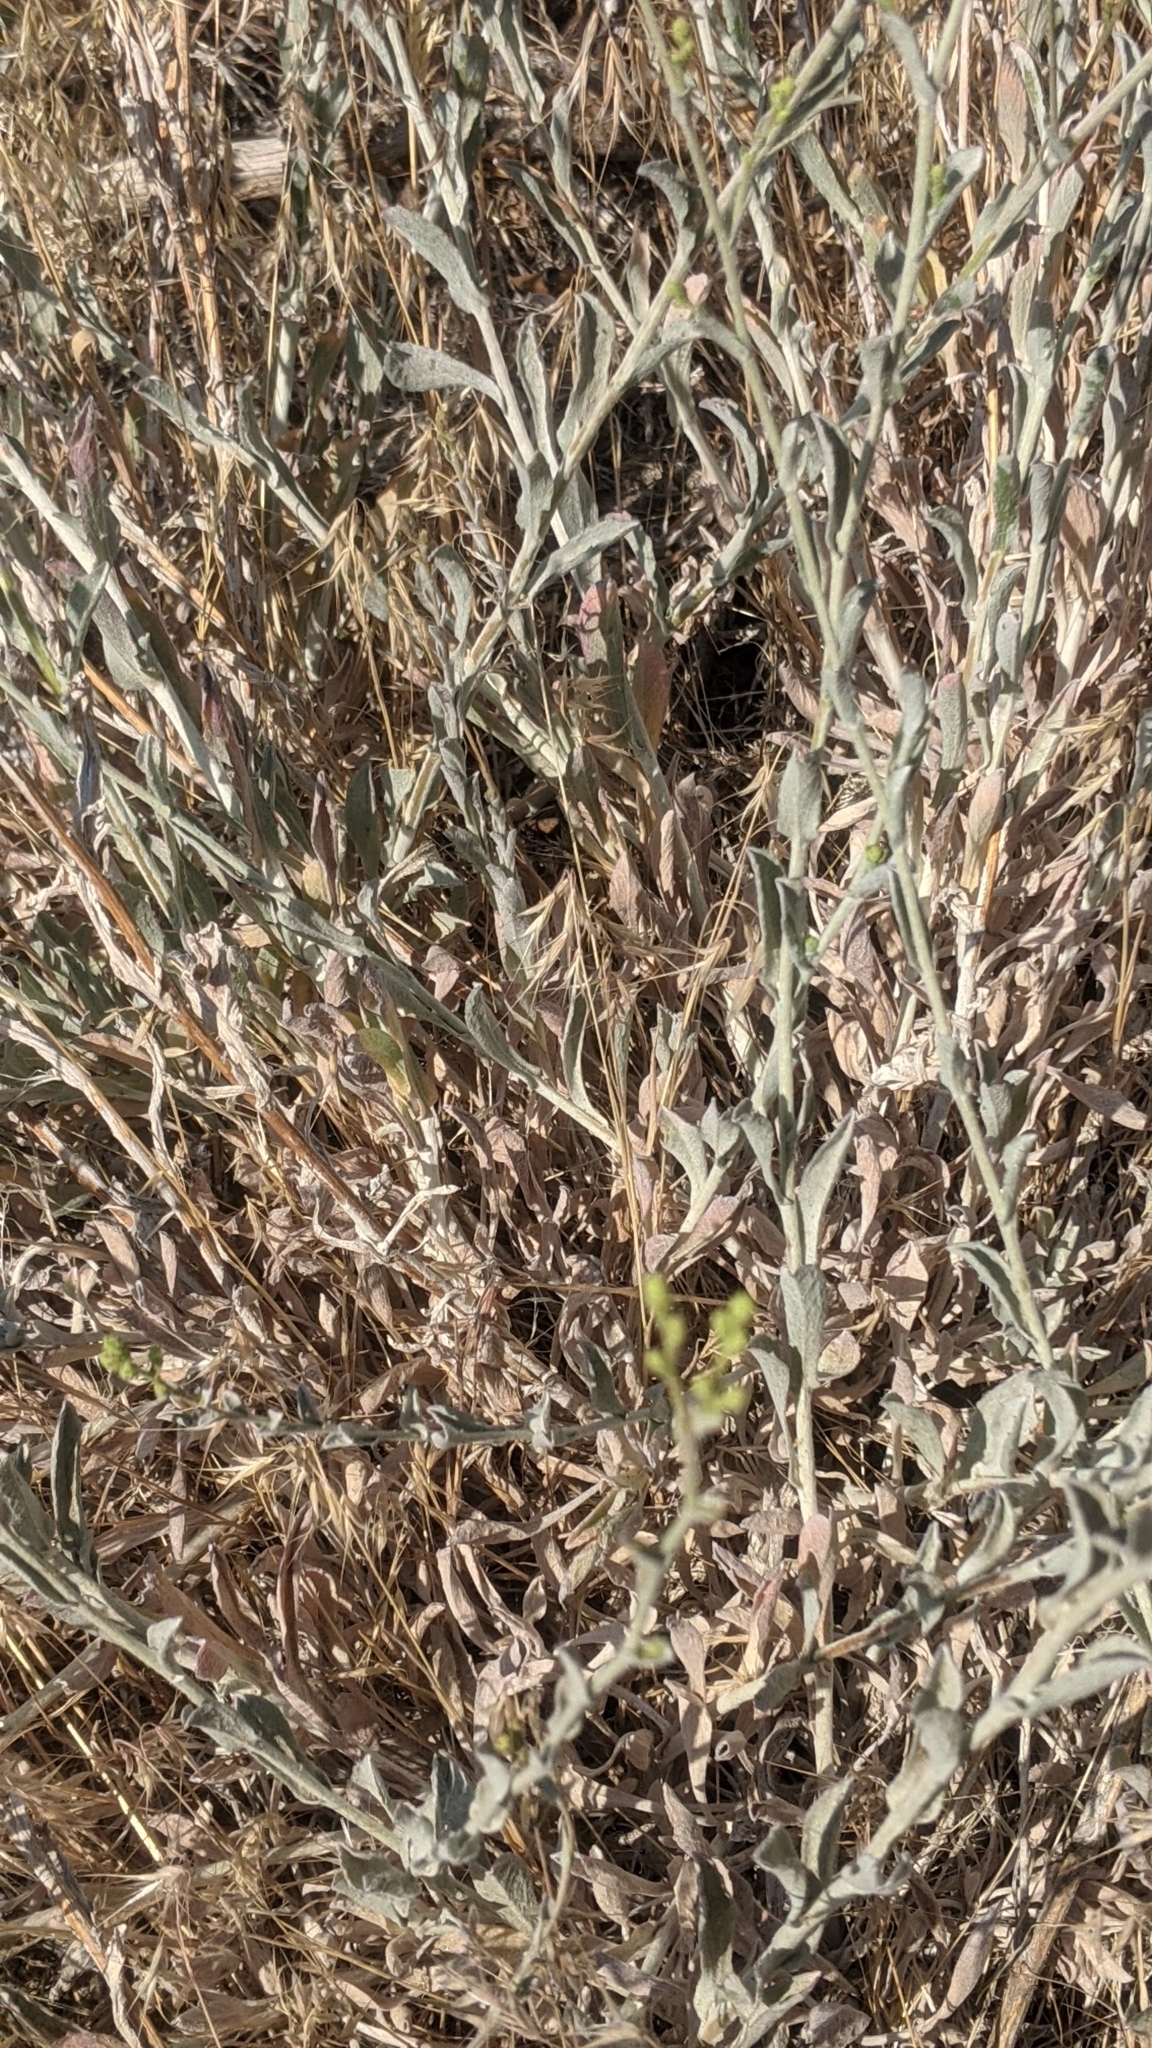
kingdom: Plantae
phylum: Tracheophyta
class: Magnoliopsida
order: Asterales
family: Asteraceae
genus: Corethrogyne
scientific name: Corethrogyne filaginifolia
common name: Sand-aster
